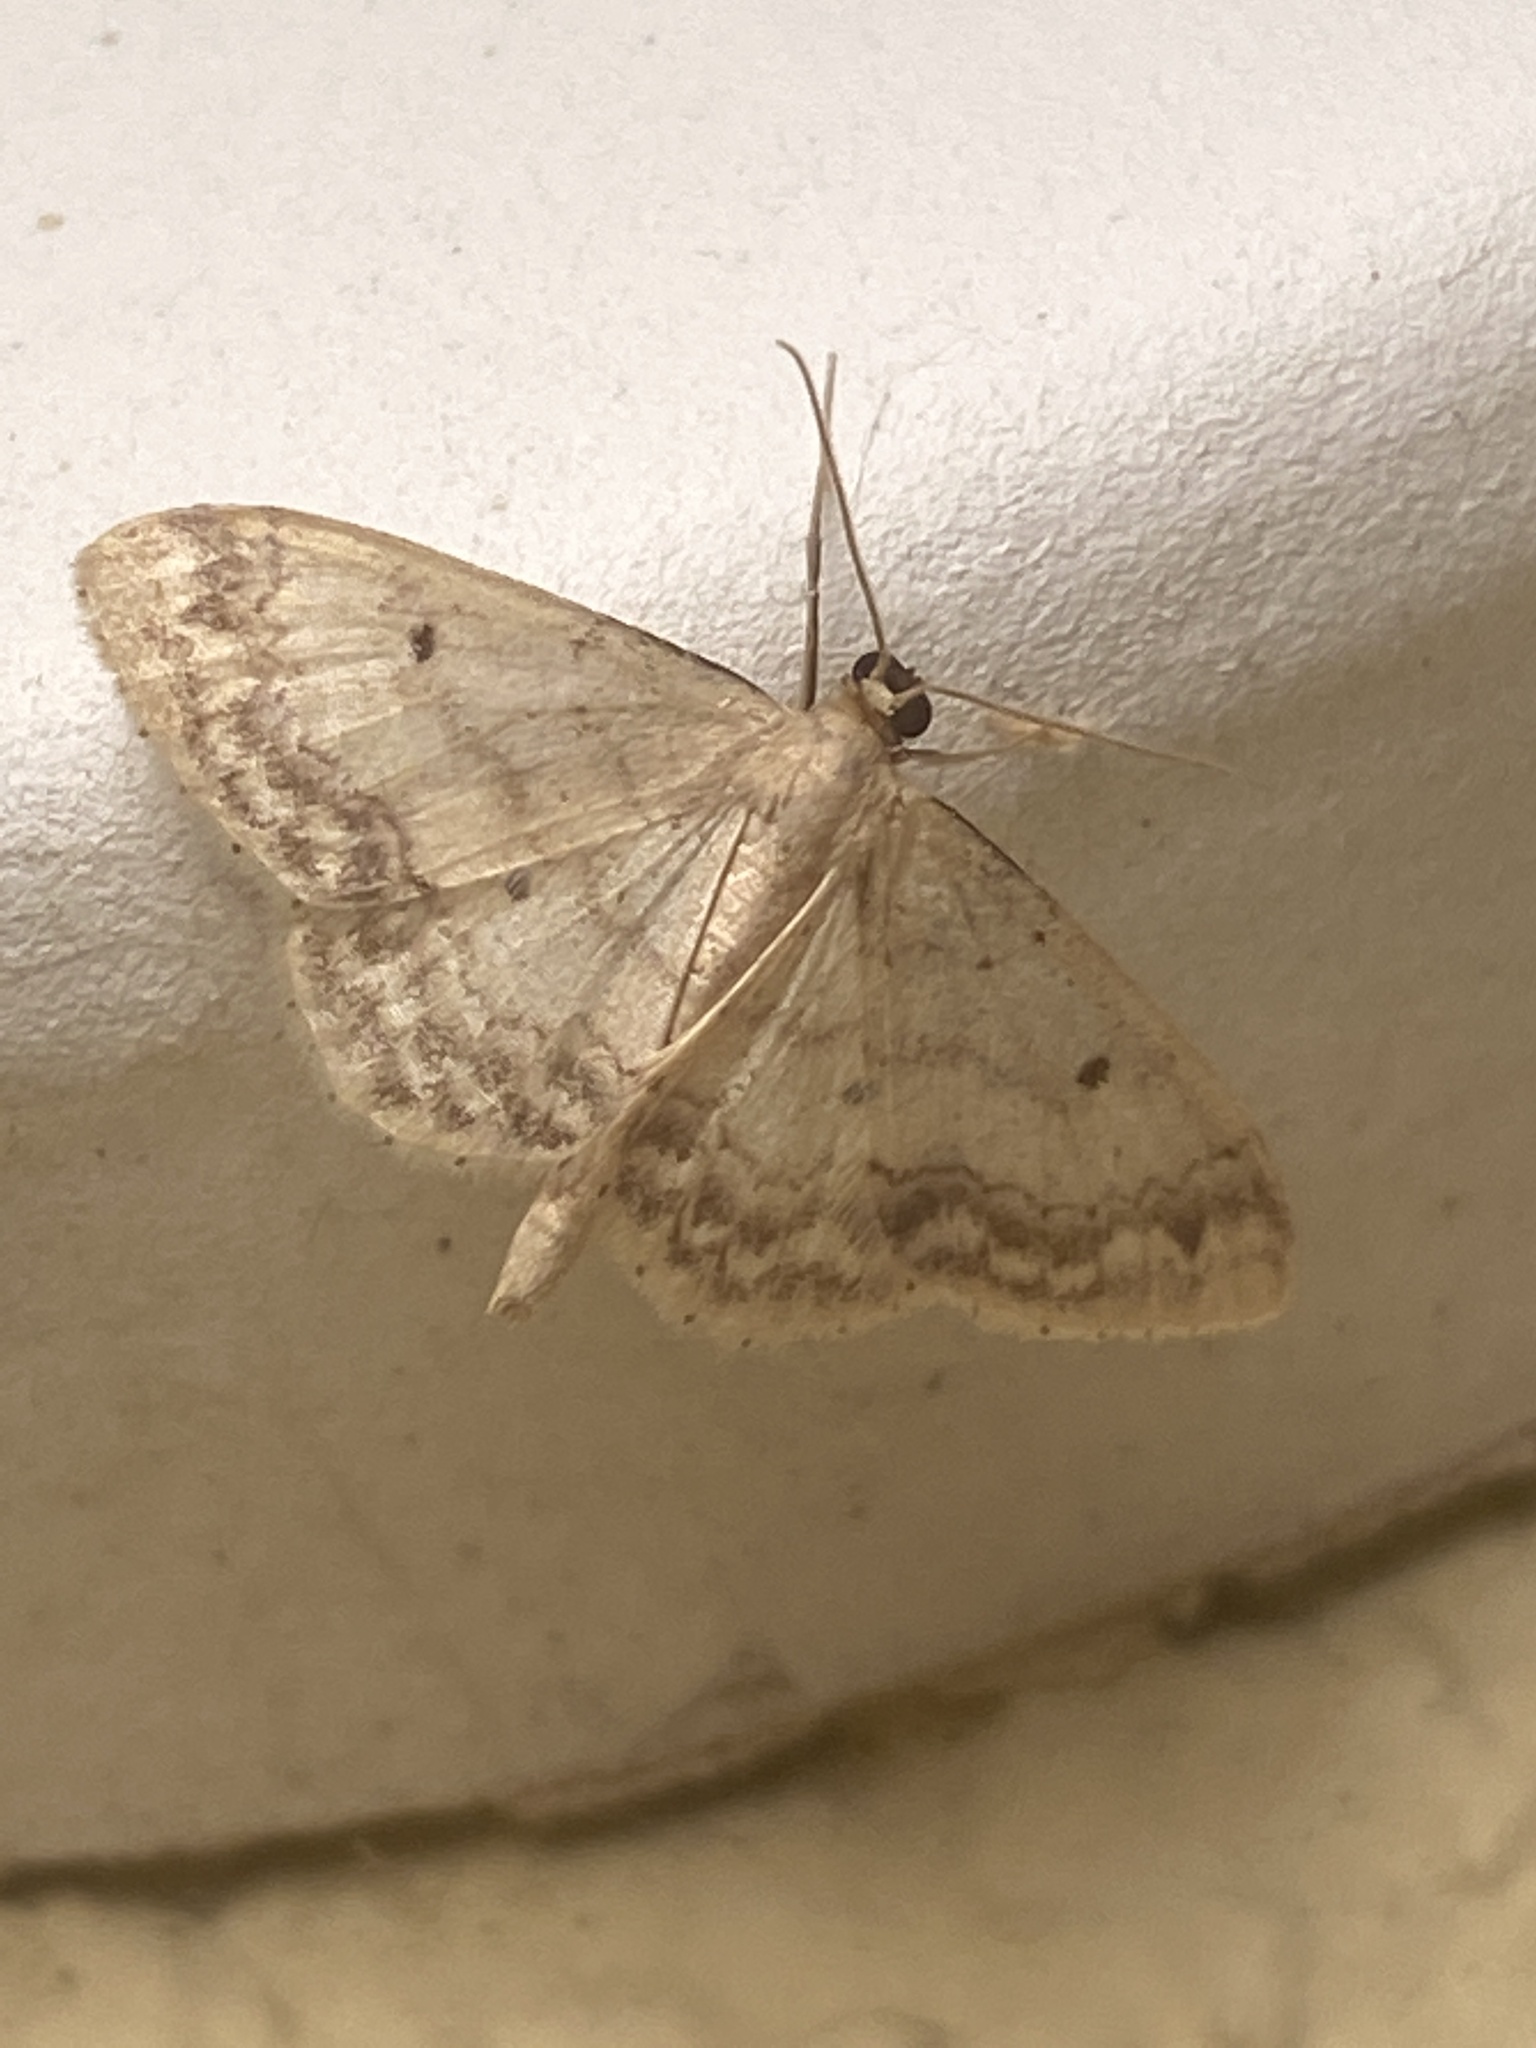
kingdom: Animalia
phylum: Arthropoda
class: Insecta
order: Lepidoptera
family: Geometridae
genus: Idaea
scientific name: Idaea biselata
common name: Small fan-footed wave
